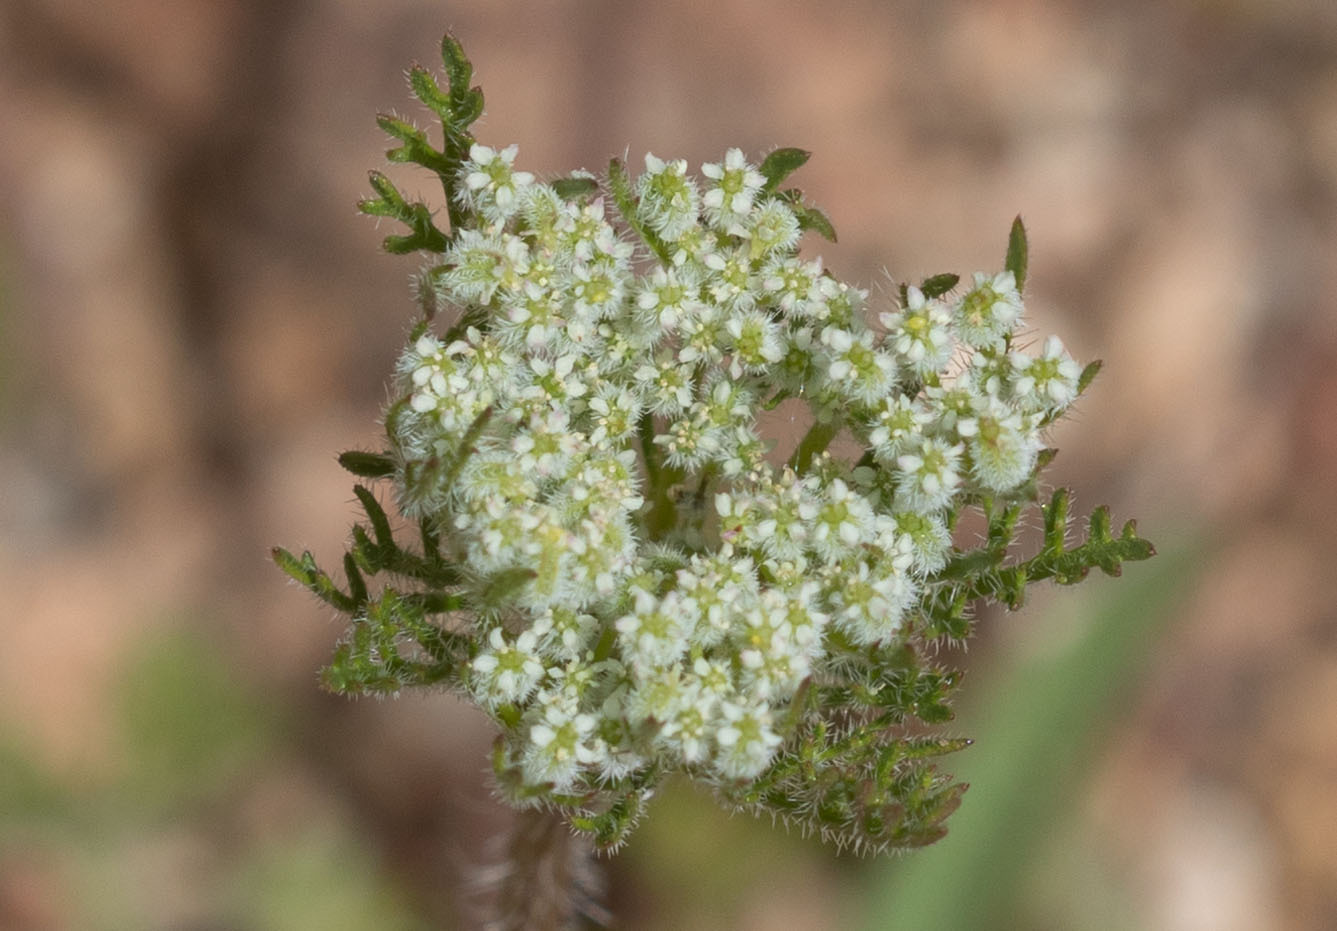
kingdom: Plantae
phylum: Tracheophyta
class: Magnoliopsida
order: Apiales
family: Apiaceae
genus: Daucus
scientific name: Daucus pusillus
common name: Southwest wild carrot
